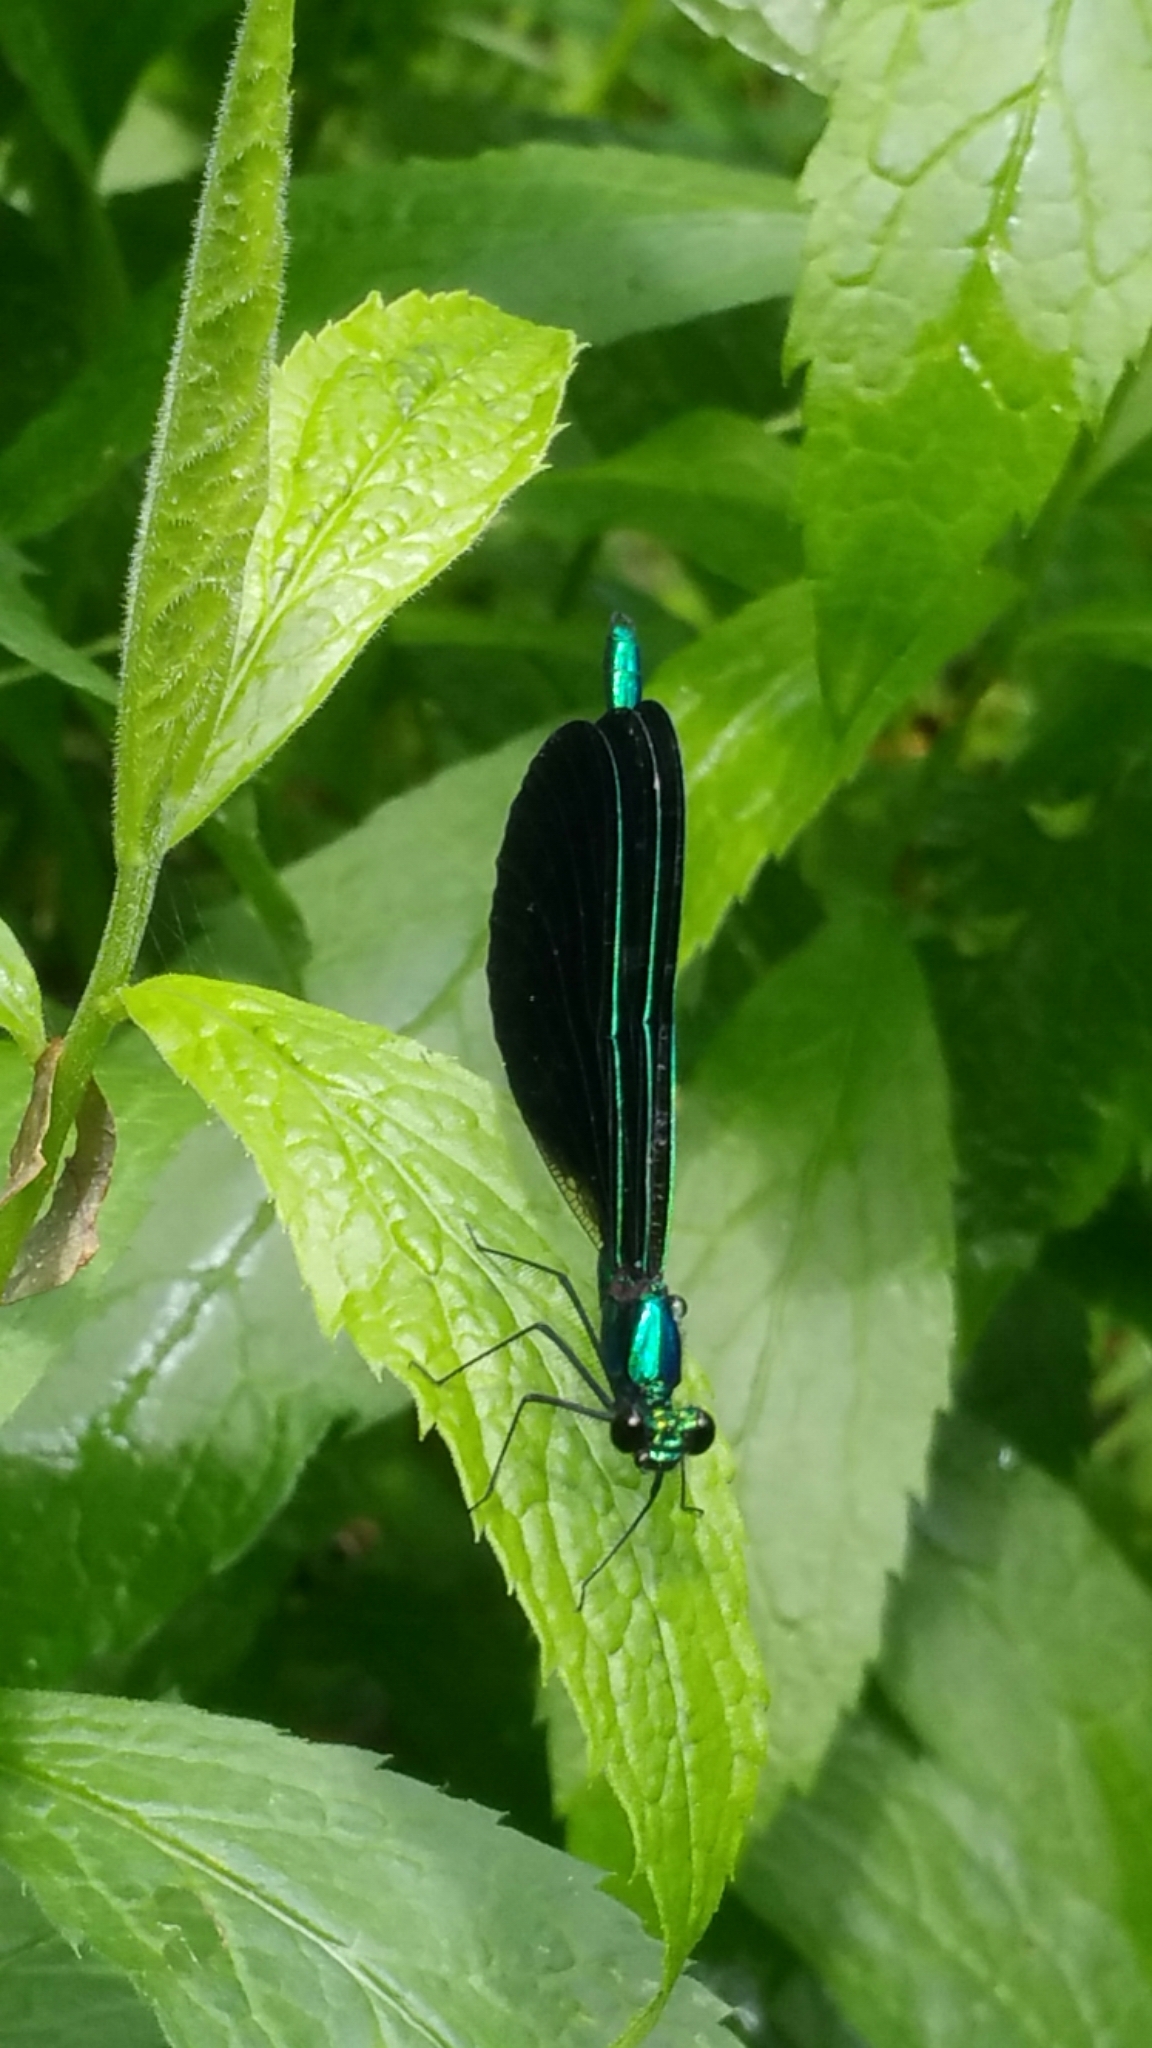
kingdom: Animalia
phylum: Arthropoda
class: Insecta
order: Odonata
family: Calopterygidae
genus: Calopteryx
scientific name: Calopteryx maculata
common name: Ebony jewelwing
